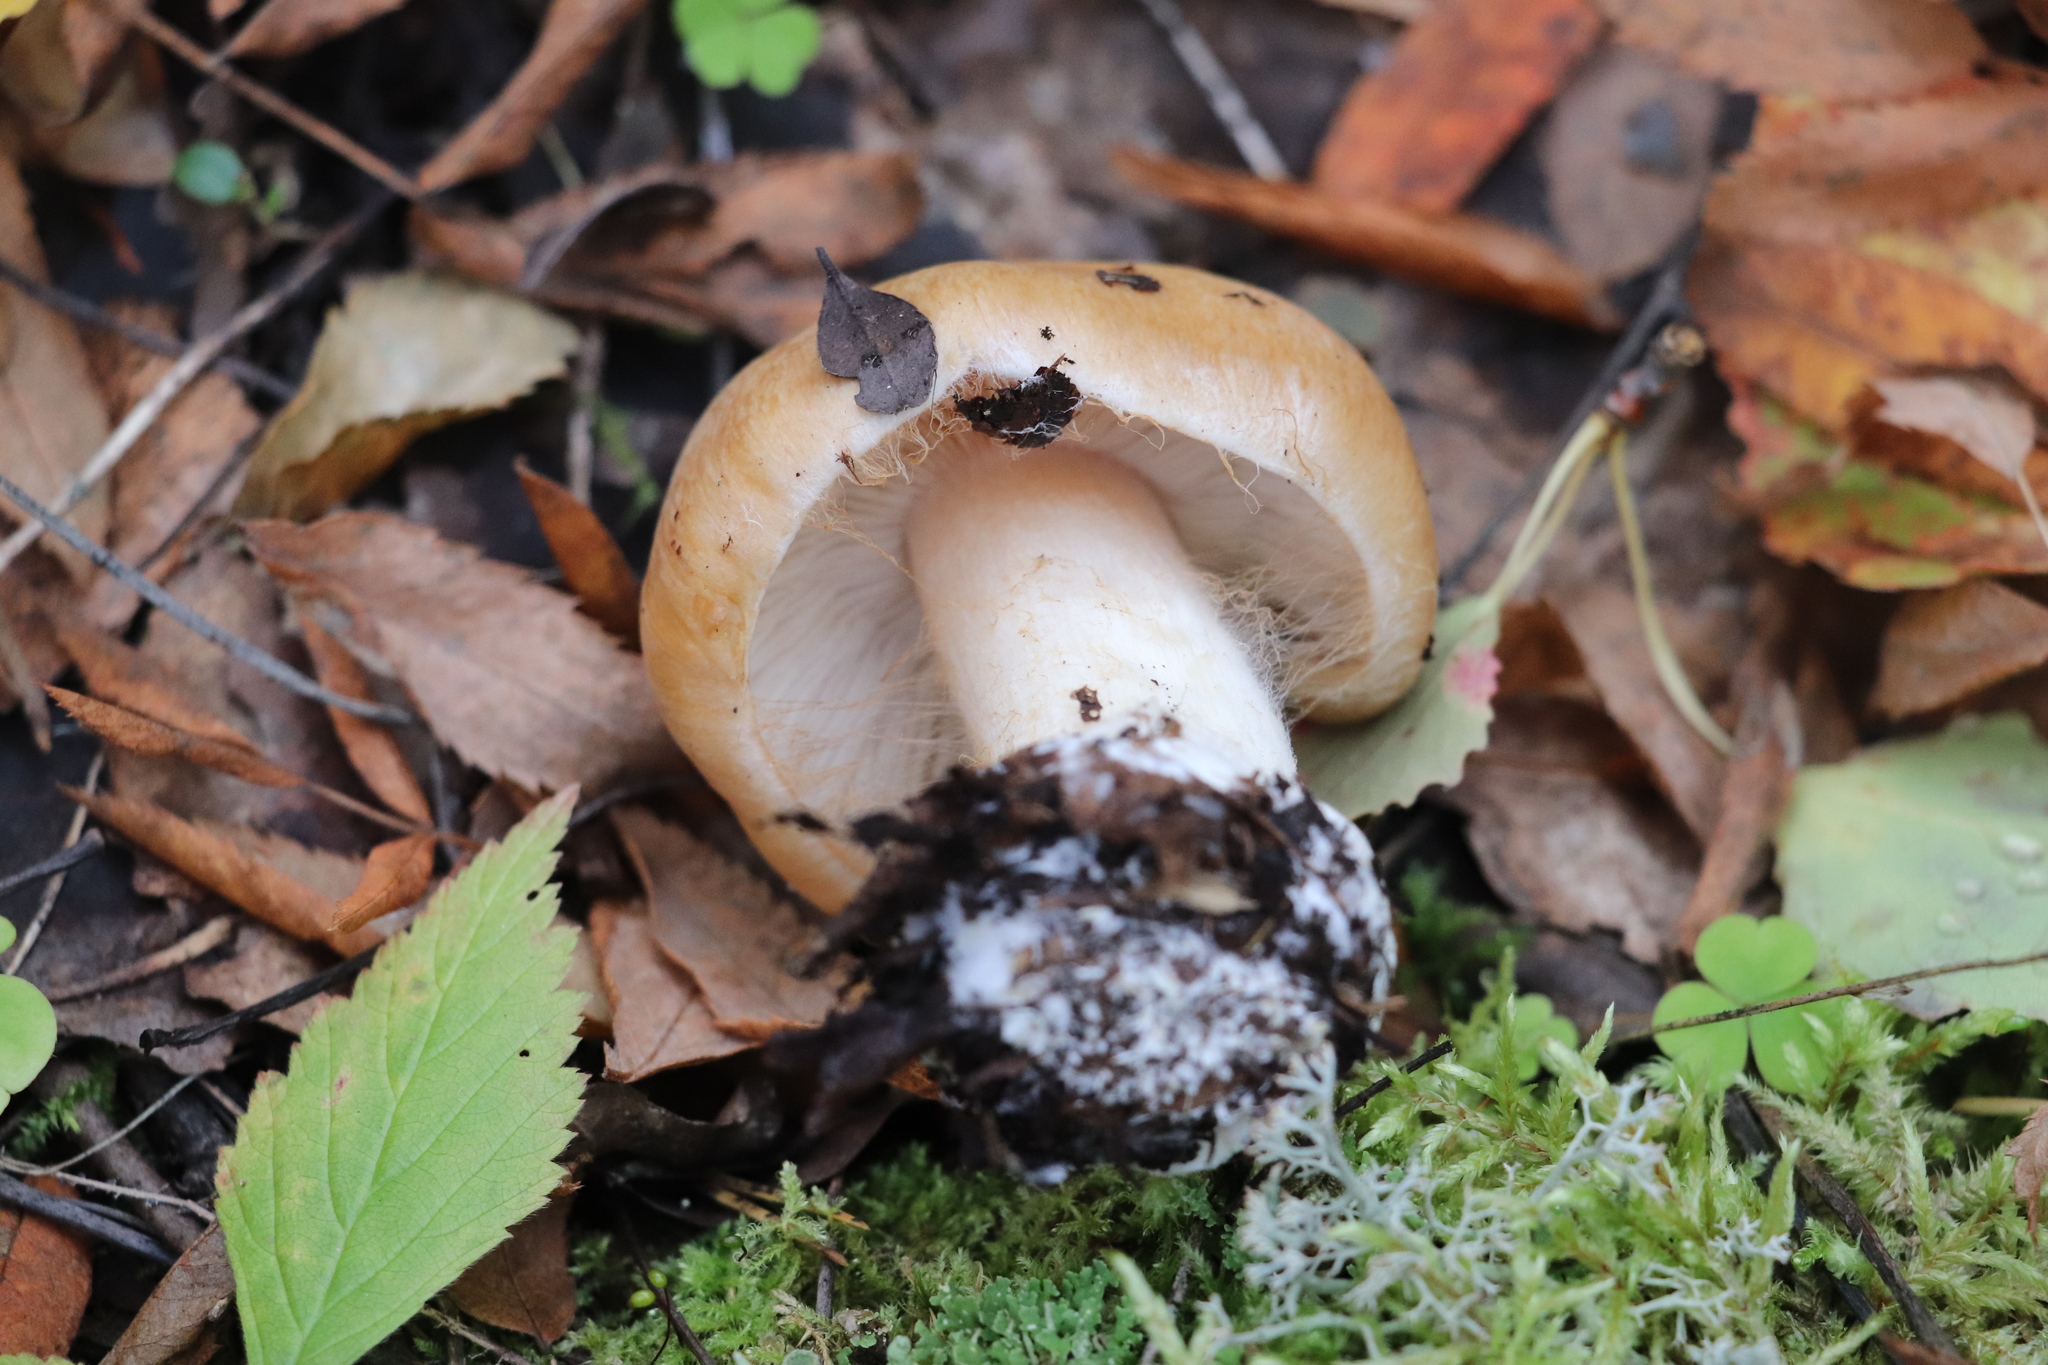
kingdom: Fungi
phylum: Basidiomycota
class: Agaricomycetes
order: Agaricales
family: Cortinariaceae
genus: Thaxterogaster
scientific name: Thaxterogaster talus
